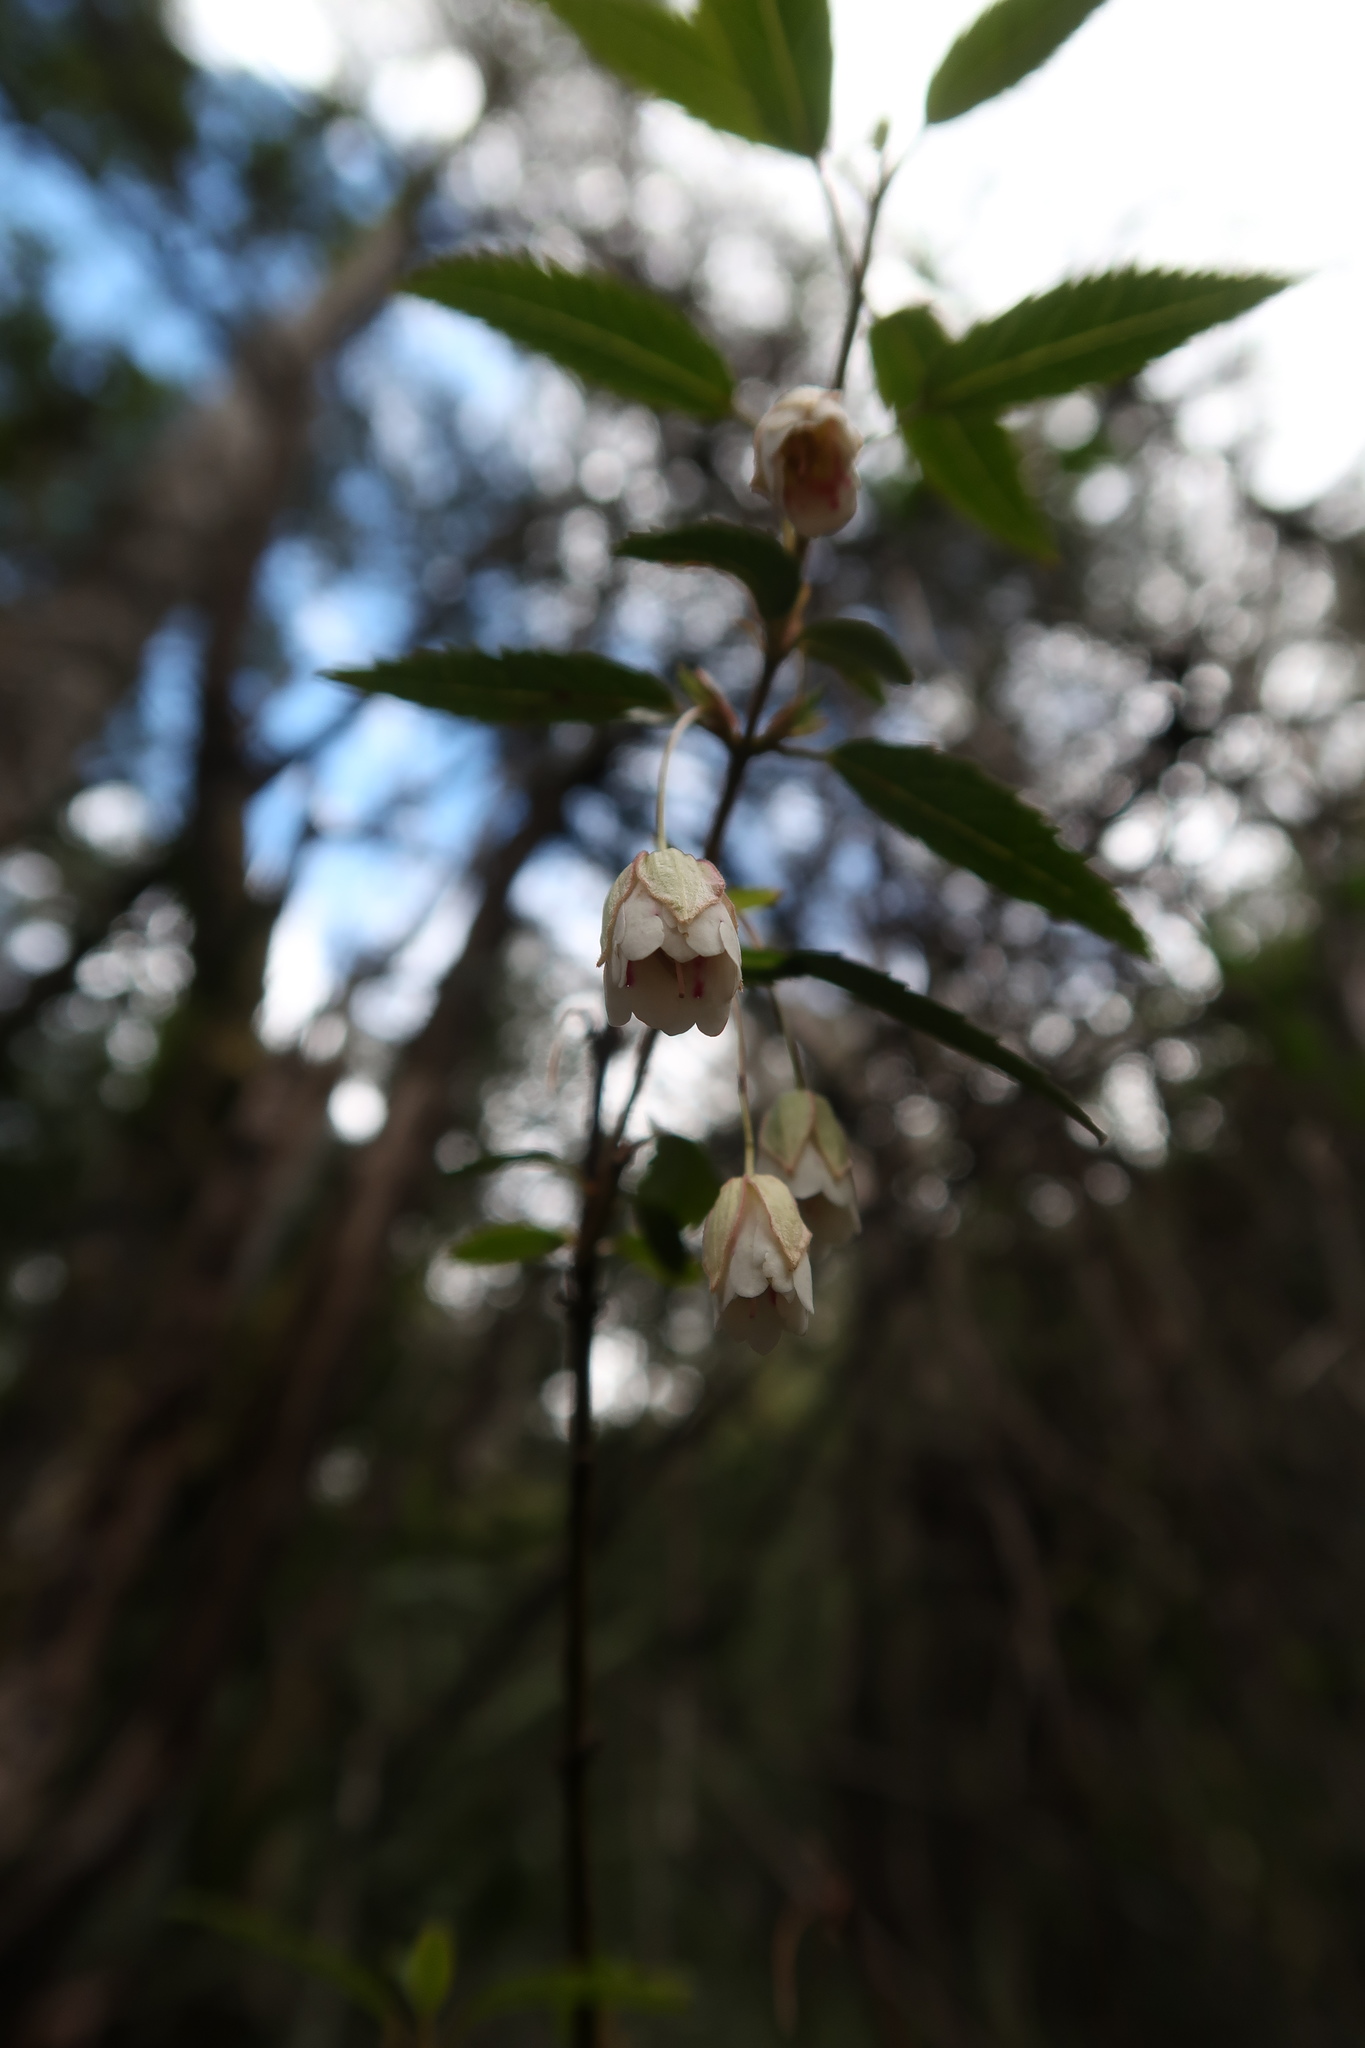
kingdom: Plantae
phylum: Tracheophyta
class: Magnoliopsida
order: Oxalidales
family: Elaeocarpaceae
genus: Aristotelia
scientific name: Aristotelia peduncularis
